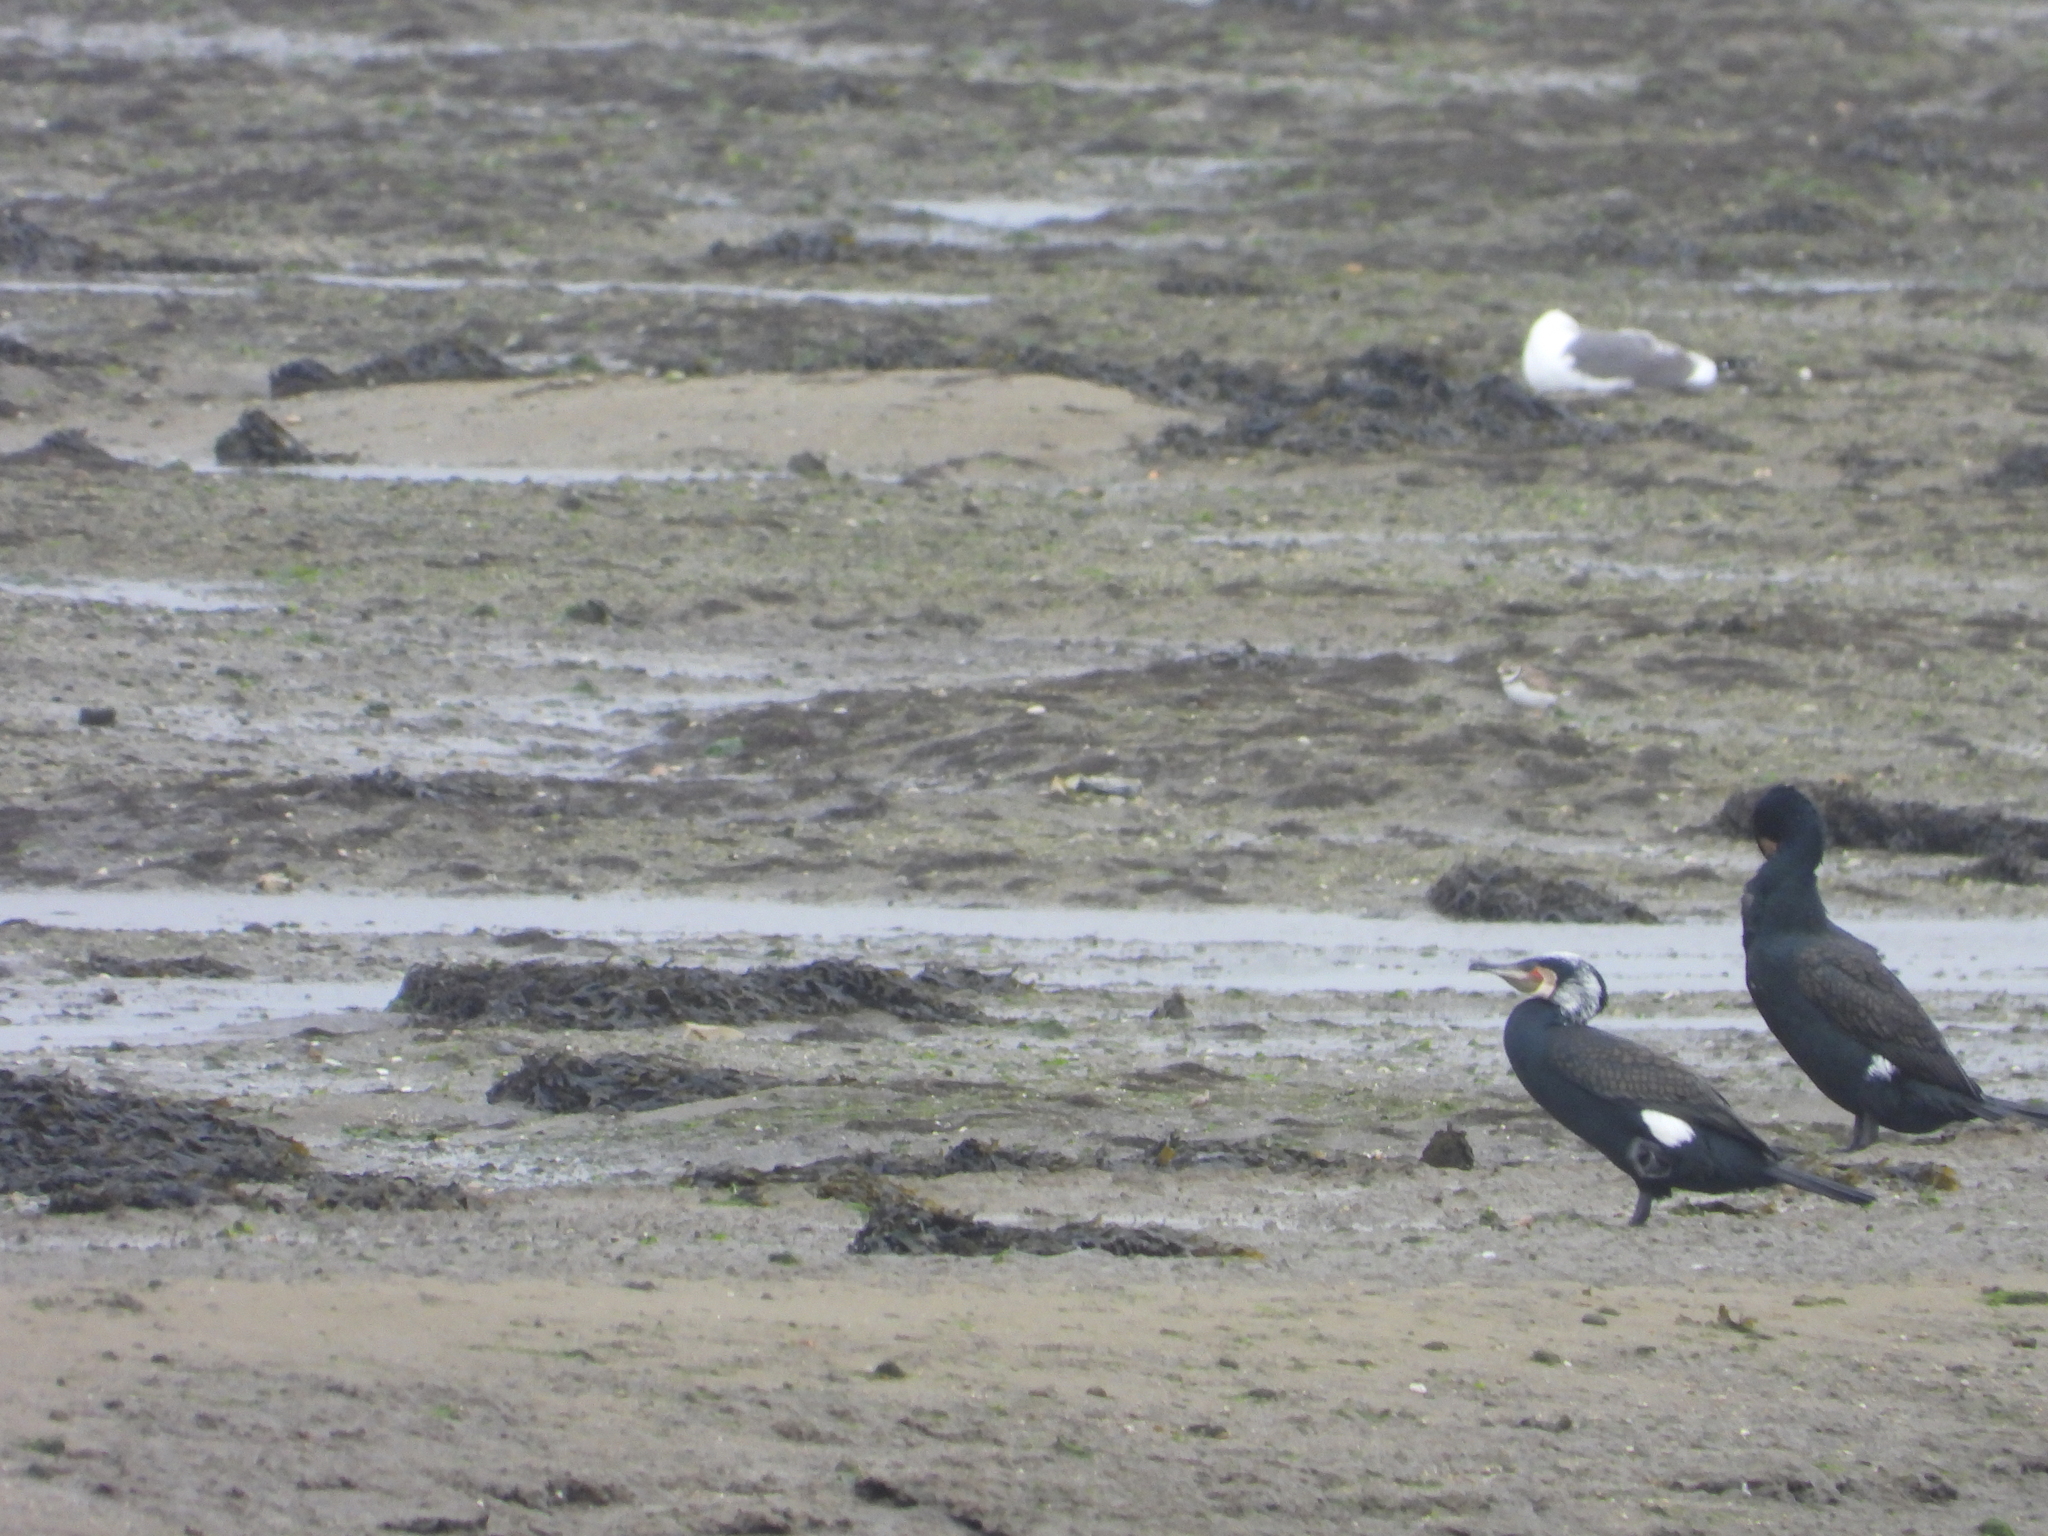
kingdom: Animalia
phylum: Chordata
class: Aves
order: Suliformes
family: Phalacrocoracidae
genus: Phalacrocorax
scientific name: Phalacrocorax carbo
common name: Great cormorant
